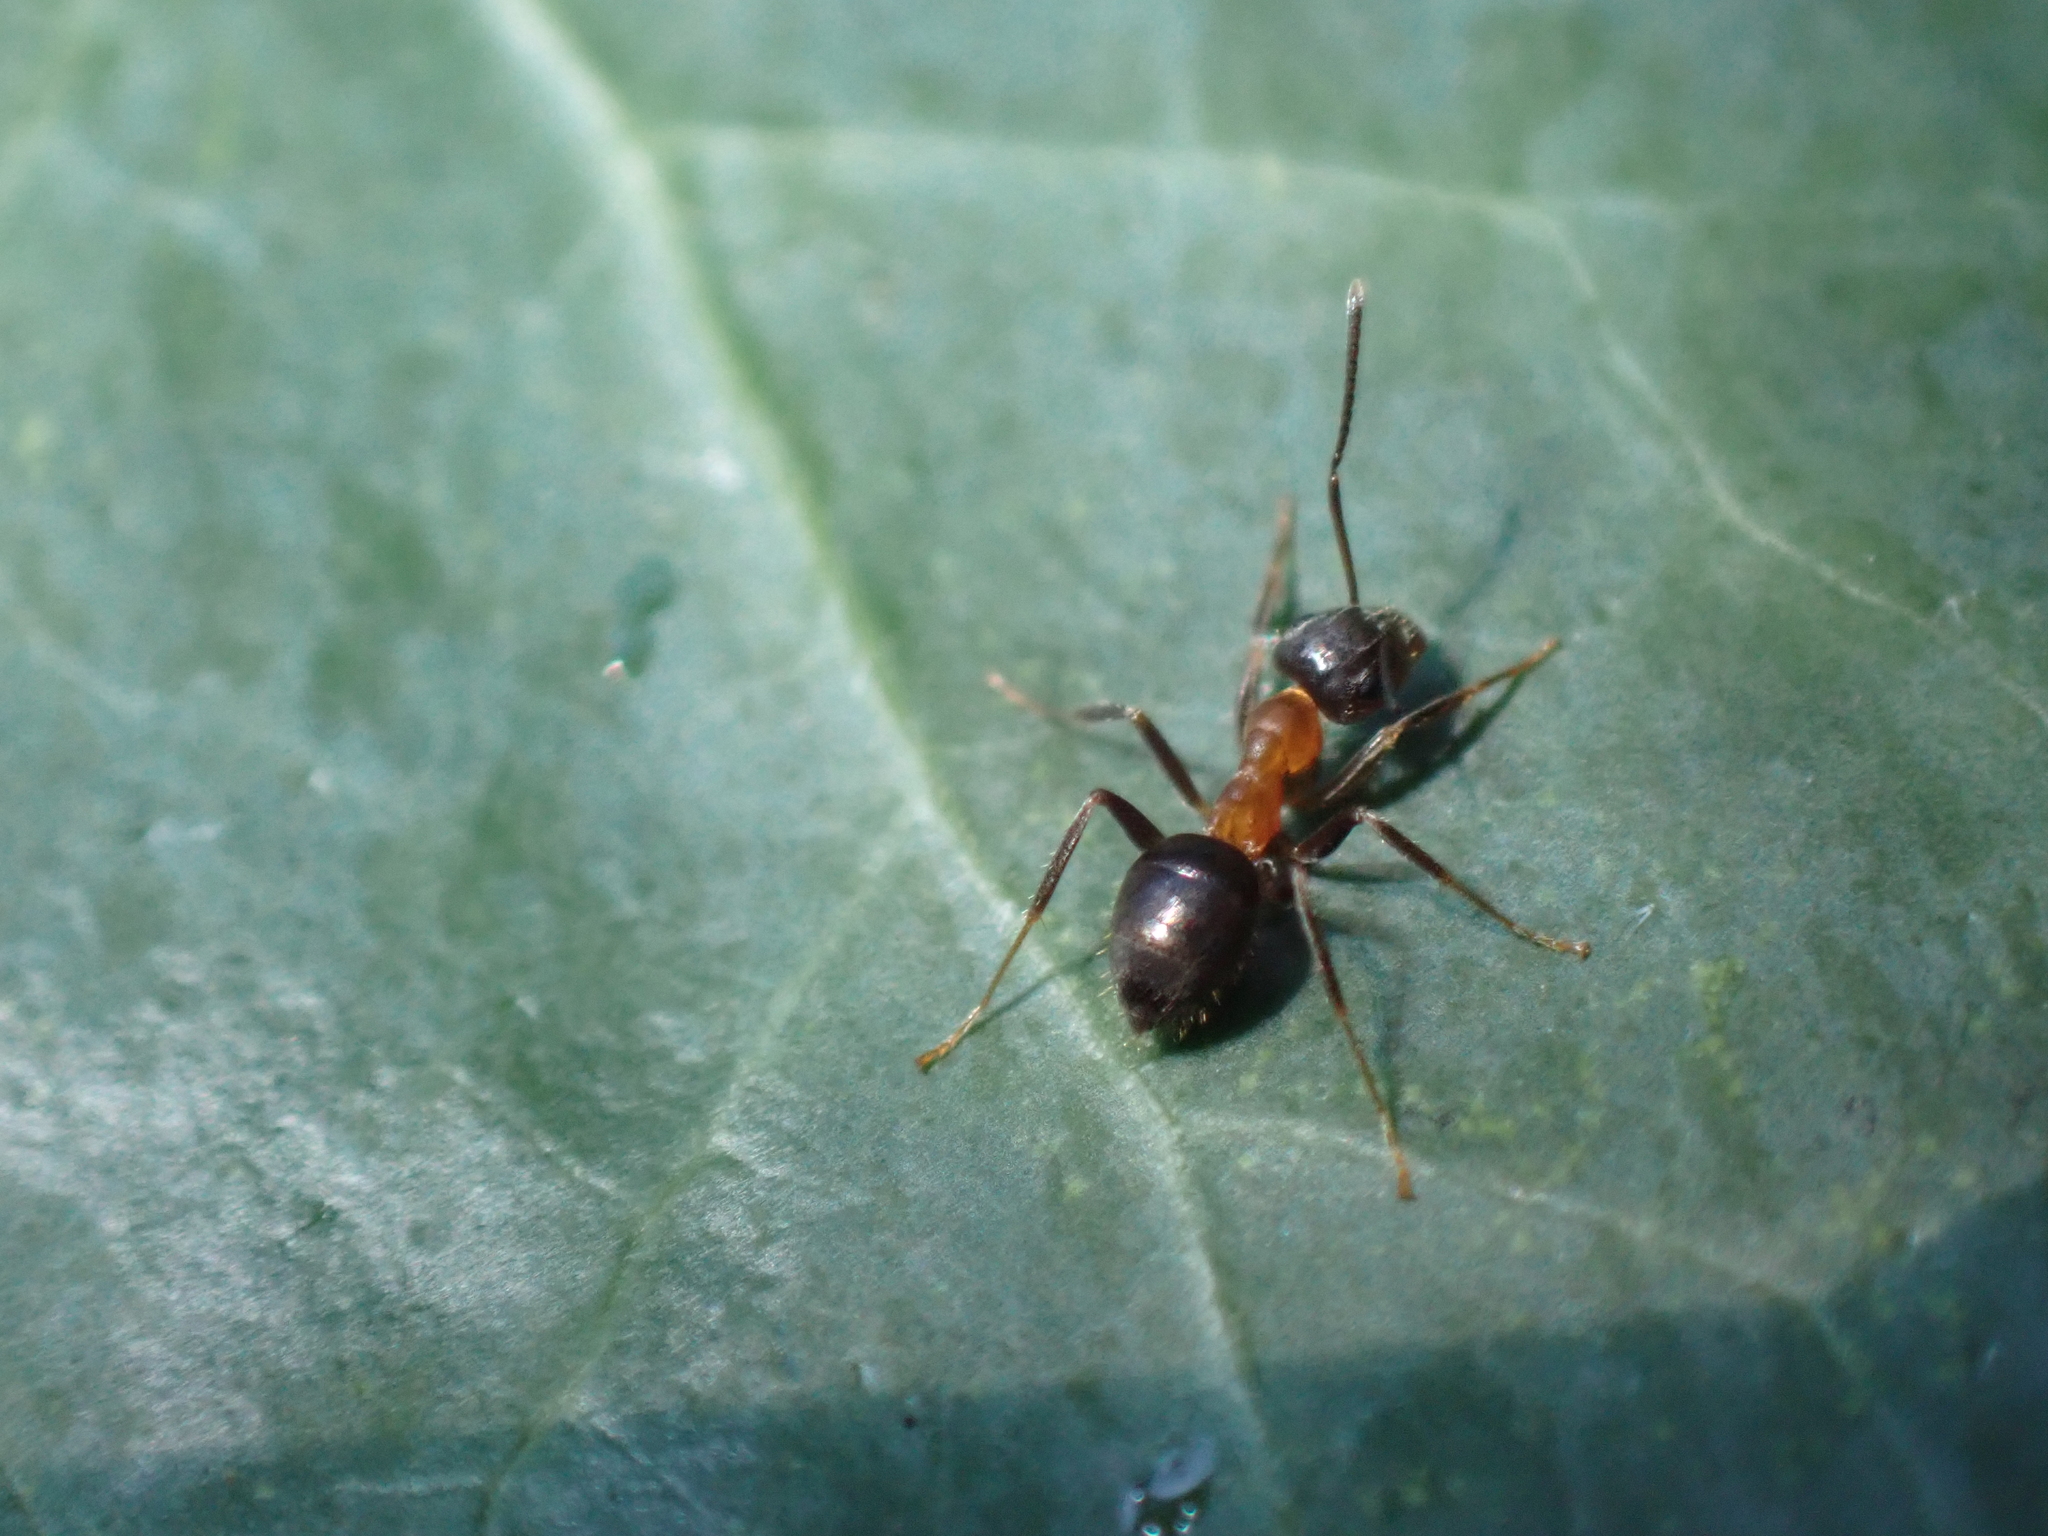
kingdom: Animalia
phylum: Arthropoda
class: Insecta
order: Hymenoptera
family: Formicidae
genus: Lasius
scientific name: Lasius emarginatus
